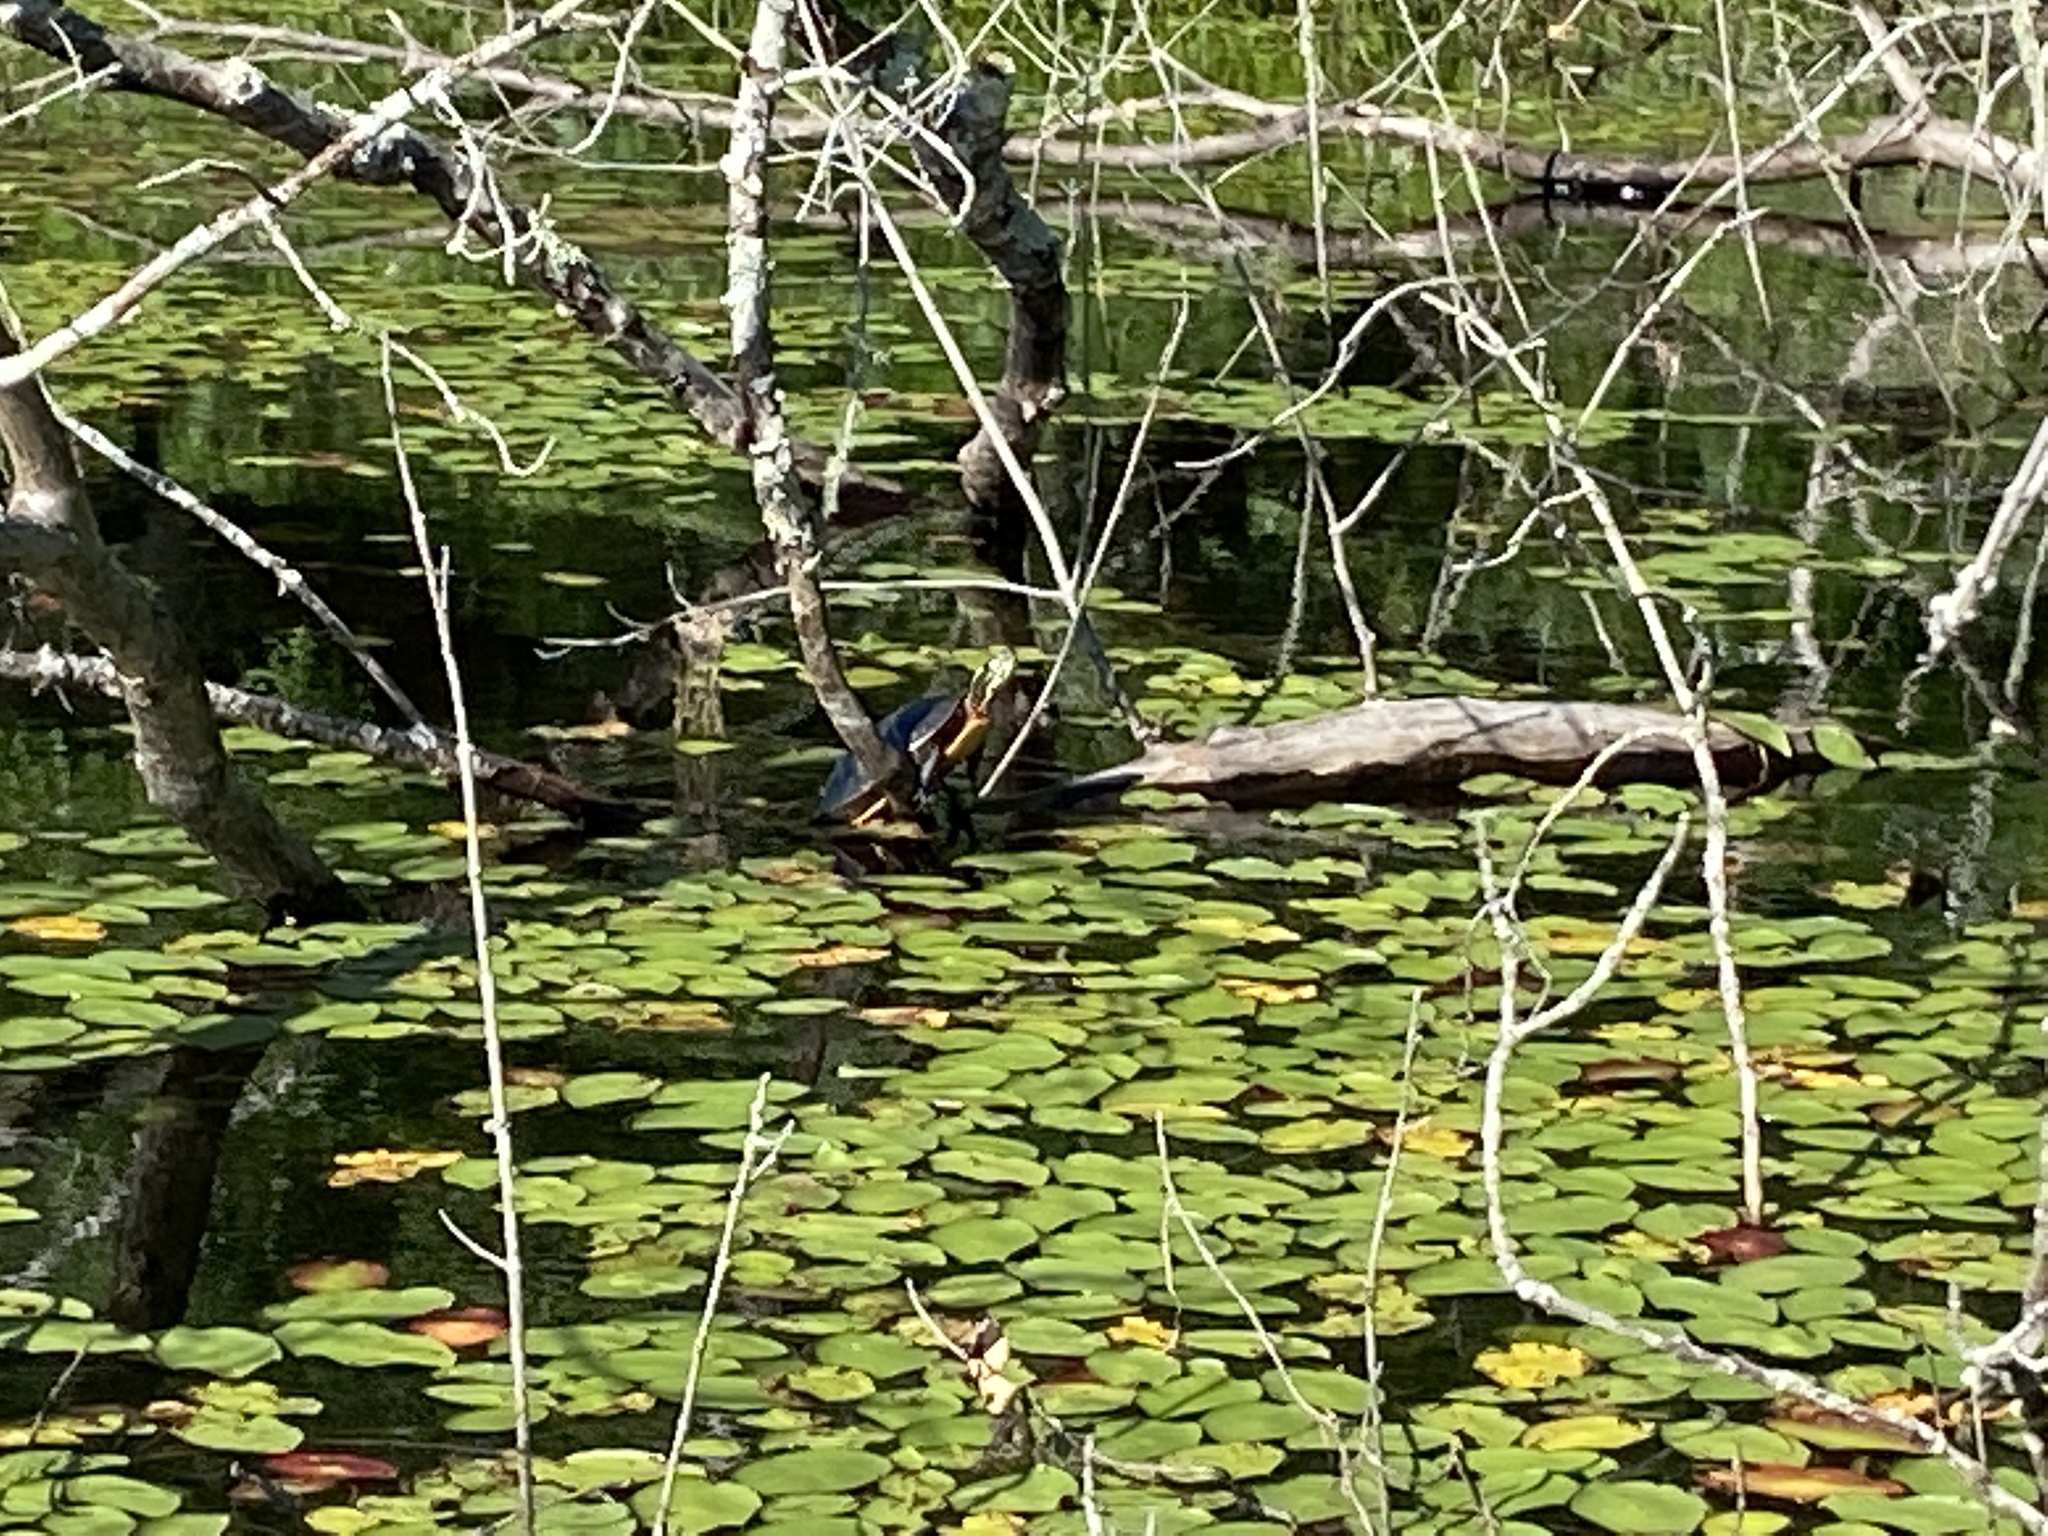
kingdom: Animalia
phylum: Chordata
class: Testudines
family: Emydidae
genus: Chrysemys
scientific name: Chrysemys picta
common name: Painted turtle
